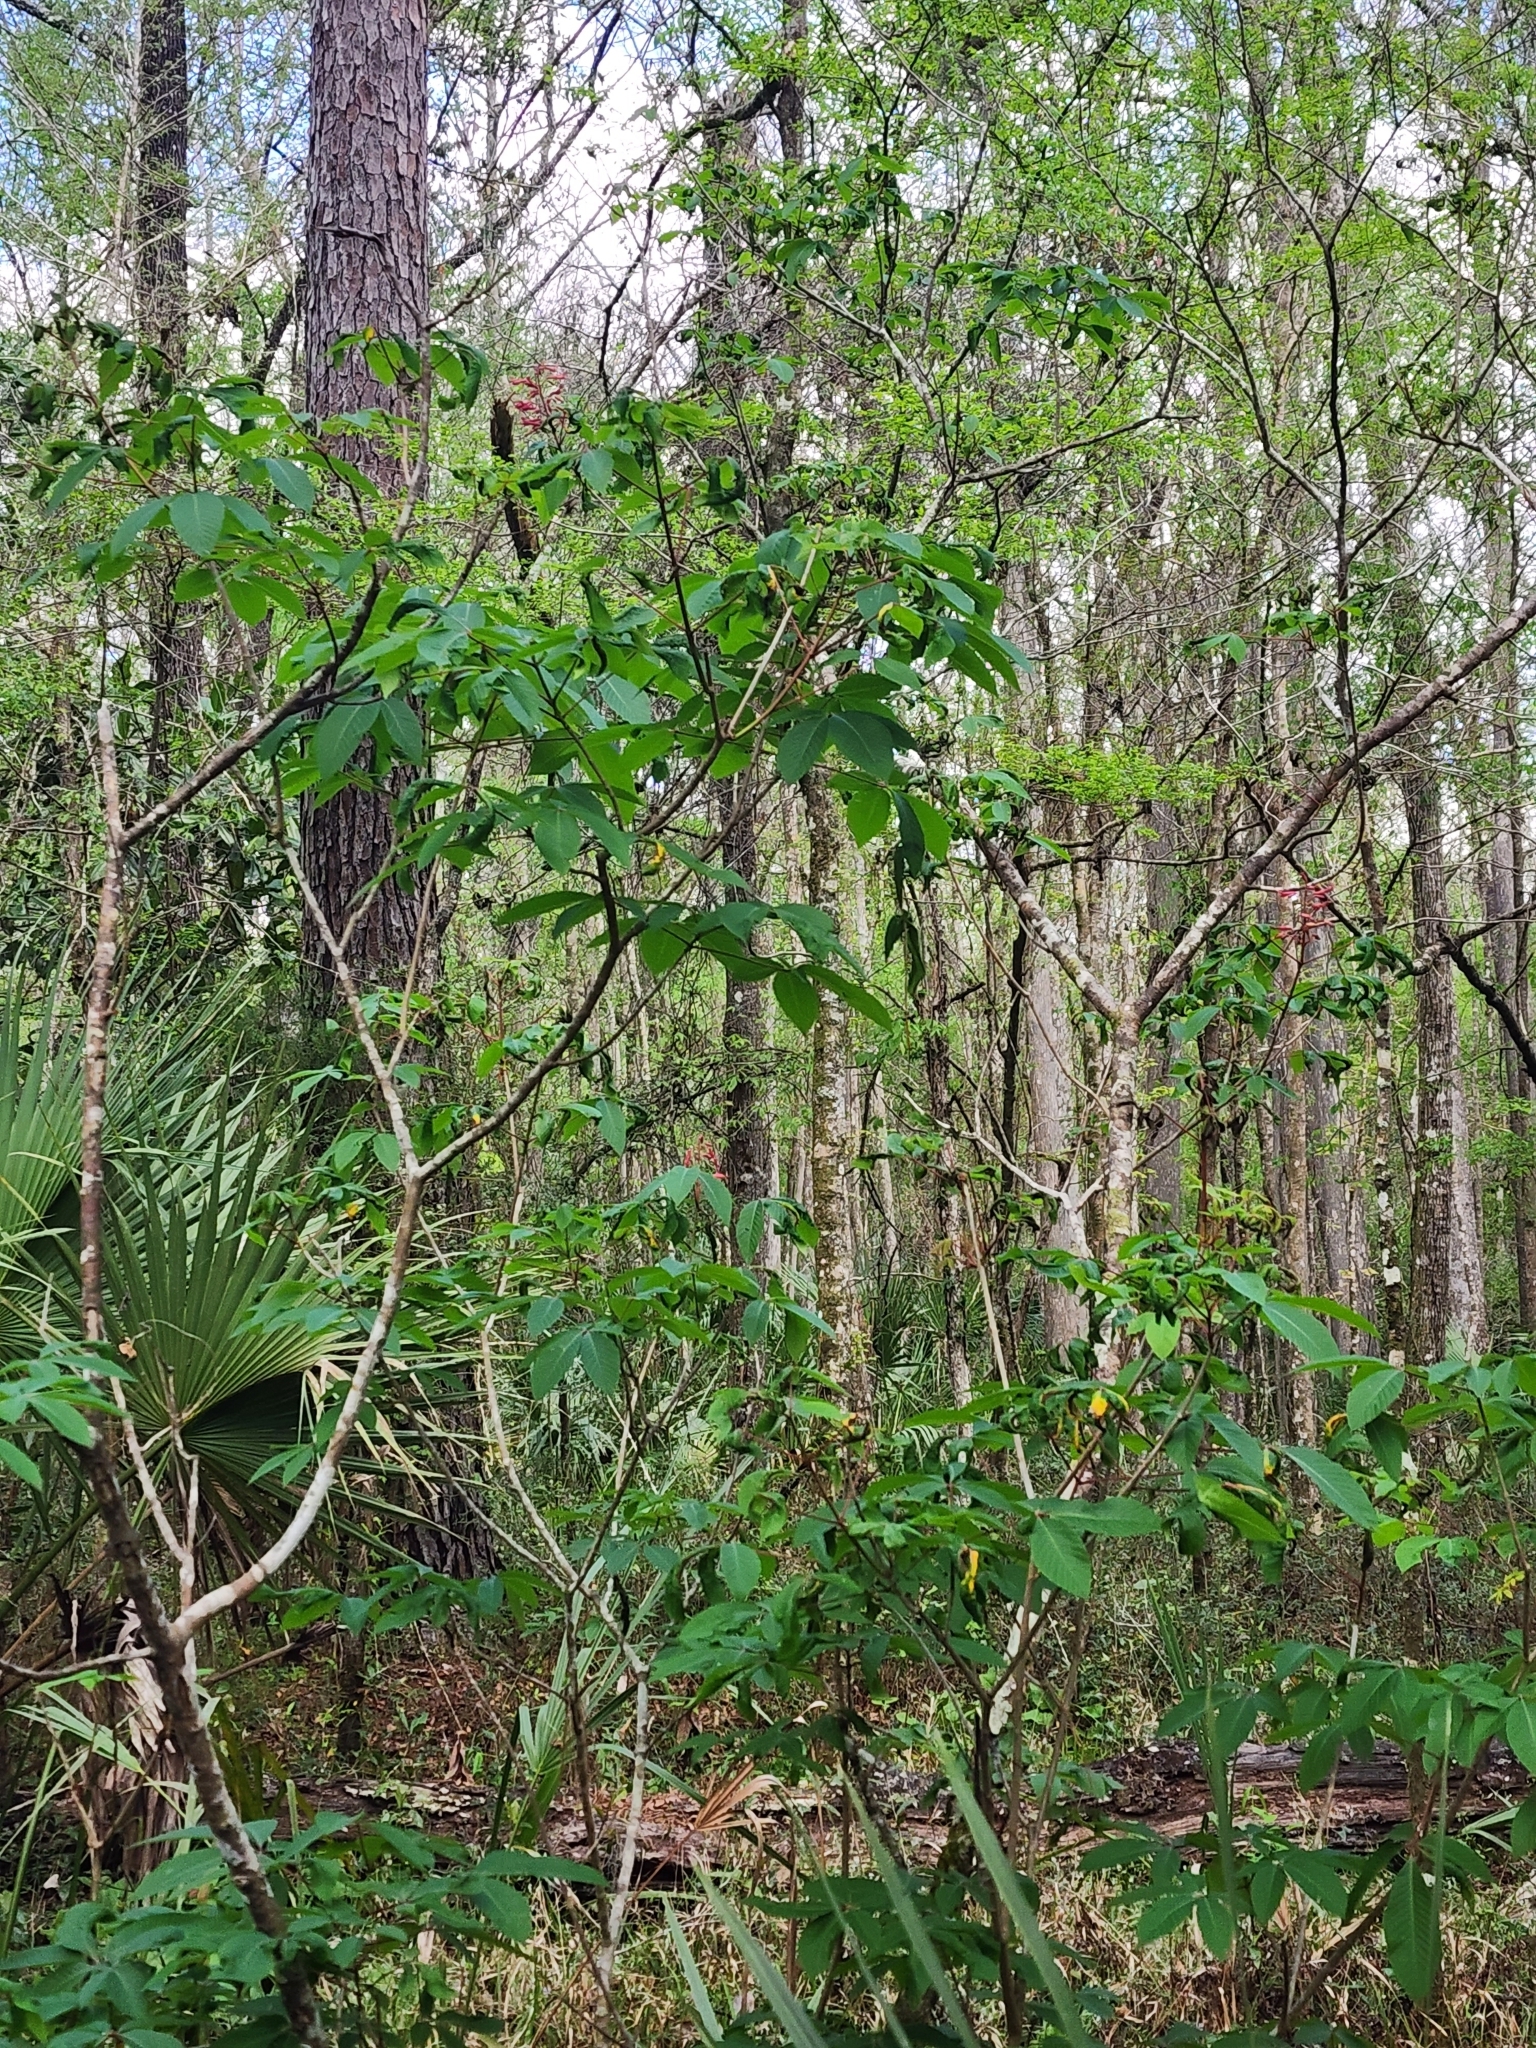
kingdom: Plantae
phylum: Tracheophyta
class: Magnoliopsida
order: Sapindales
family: Sapindaceae
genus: Aesculus
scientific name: Aesculus pavia
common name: Red buckeye
